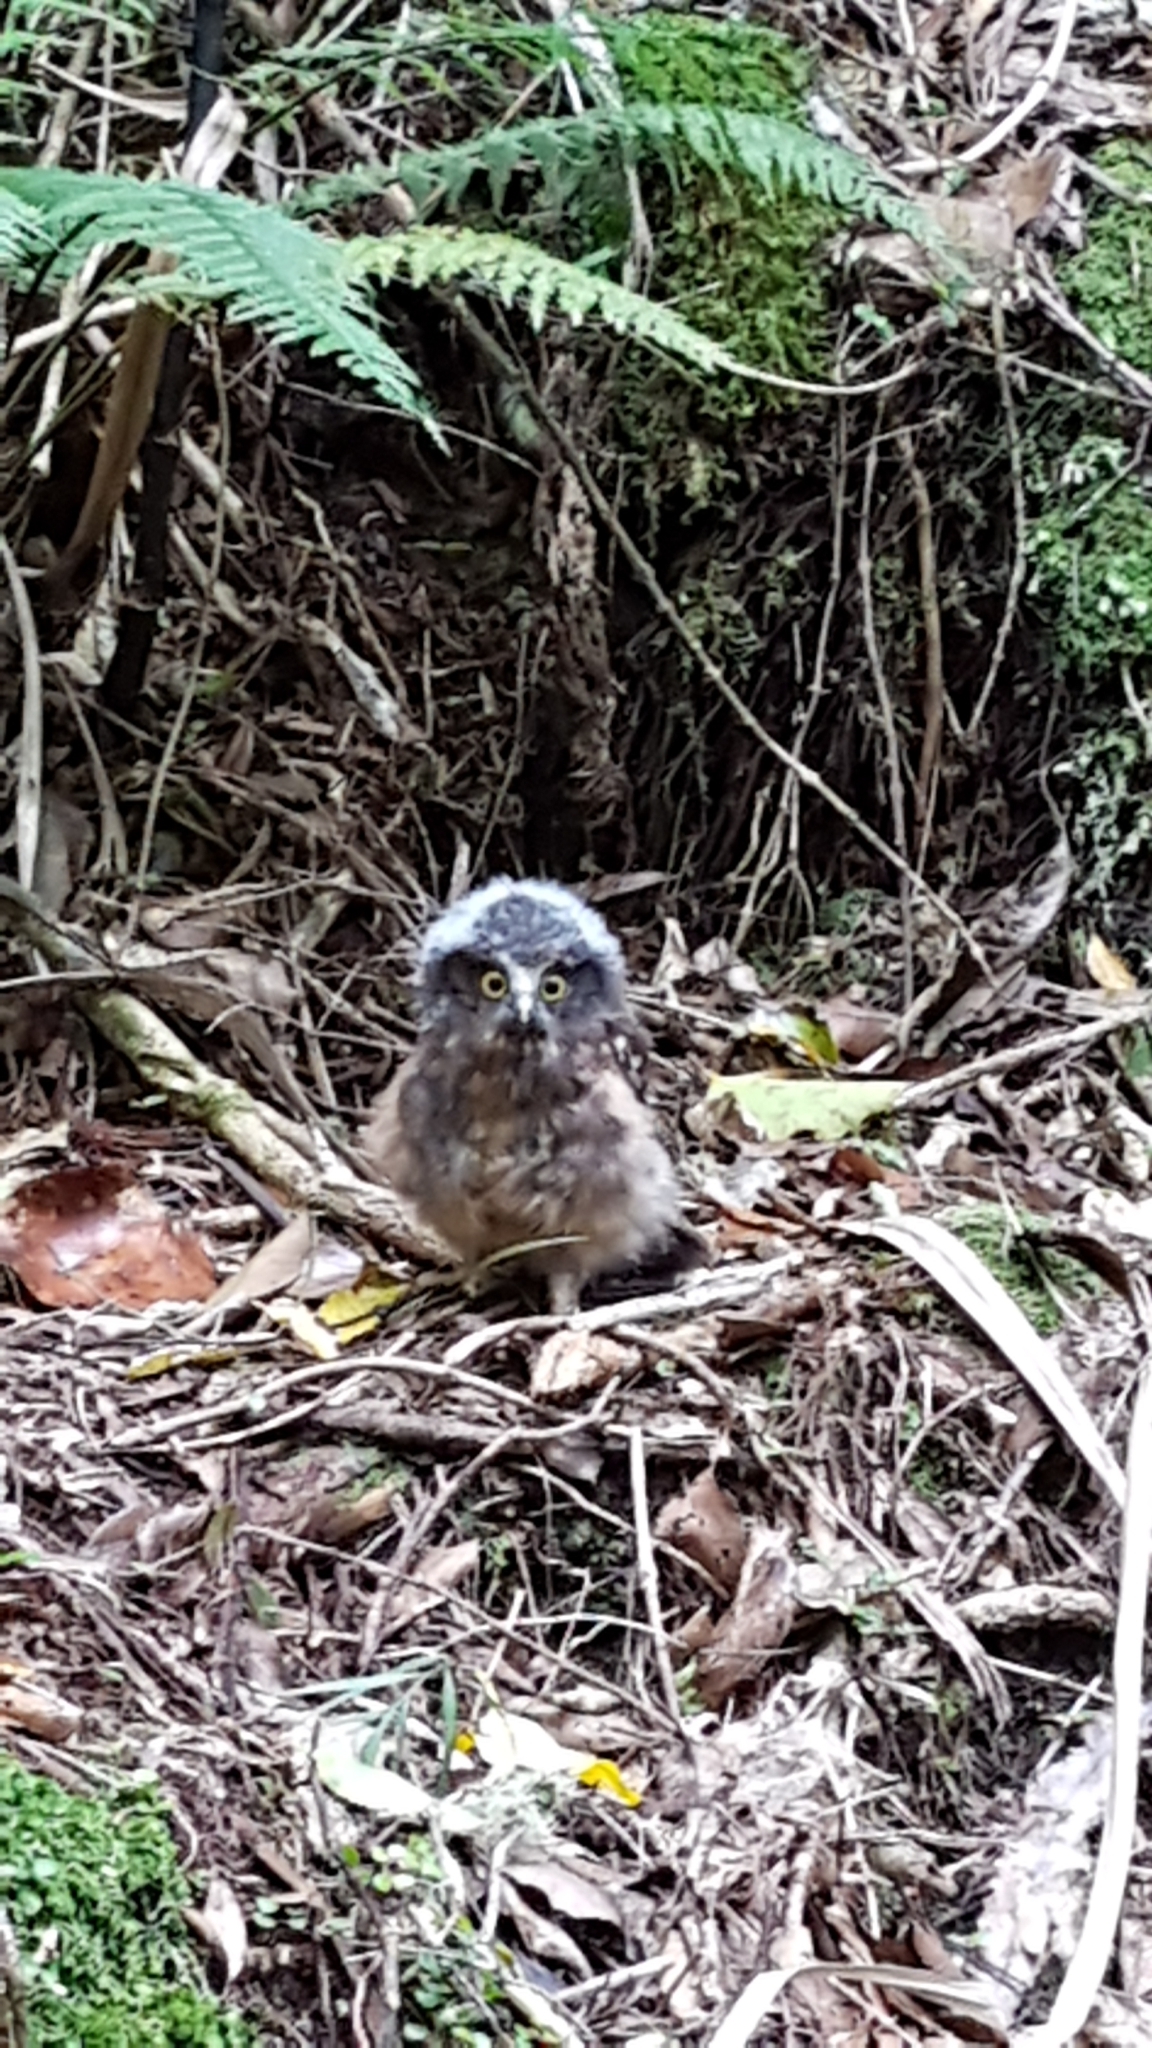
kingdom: Animalia
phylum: Chordata
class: Aves
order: Strigiformes
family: Strigidae
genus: Ninox
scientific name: Ninox novaeseelandiae
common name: Morepork
